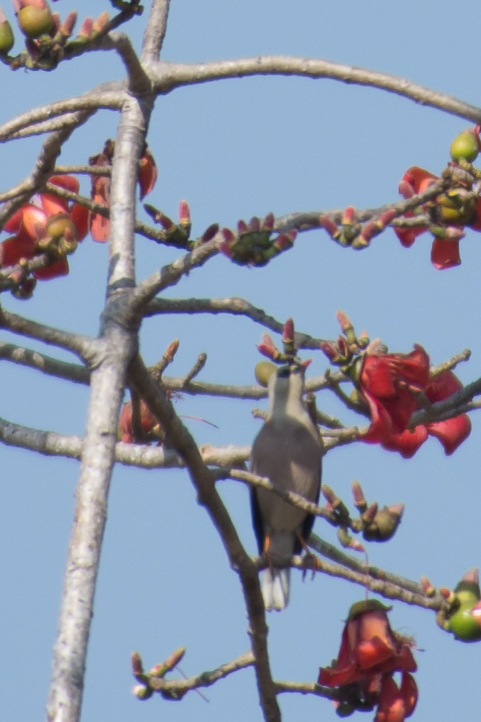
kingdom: Animalia
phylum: Chordata
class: Aves
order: Passeriformes
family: Sturnidae
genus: Acridotheres
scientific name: Acridotheres burmannicus
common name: Vinous-breasted starling
